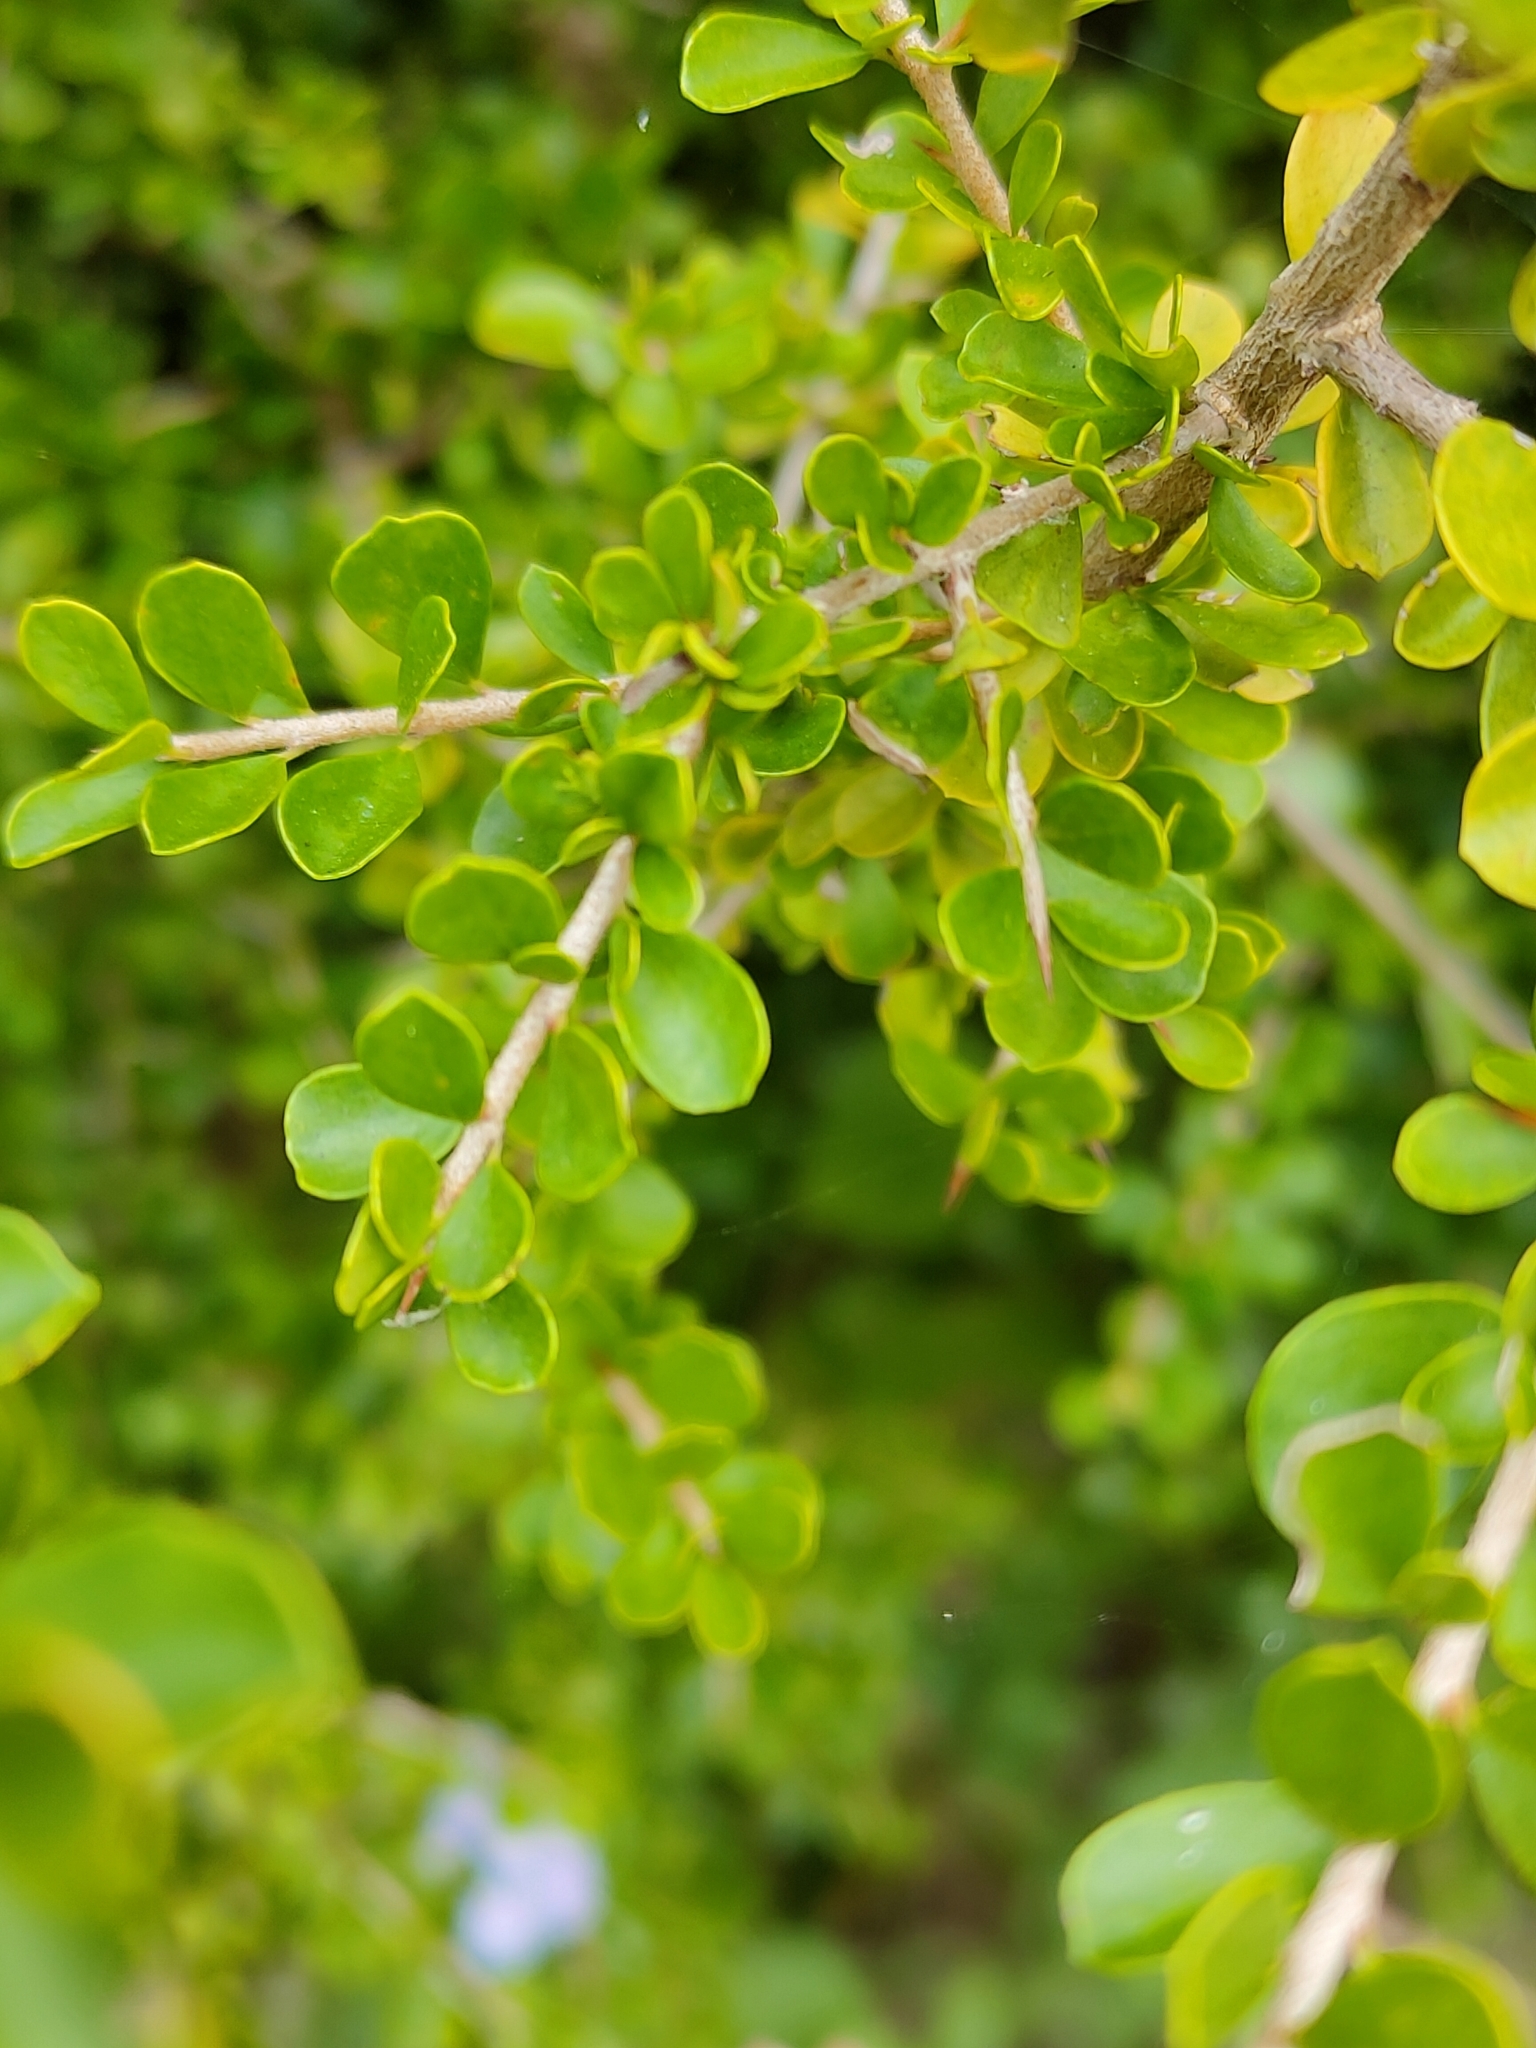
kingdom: Plantae
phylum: Tracheophyta
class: Magnoliopsida
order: Apiales
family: Pittosporaceae
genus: Pittosporum
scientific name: Pittosporum spinescens
